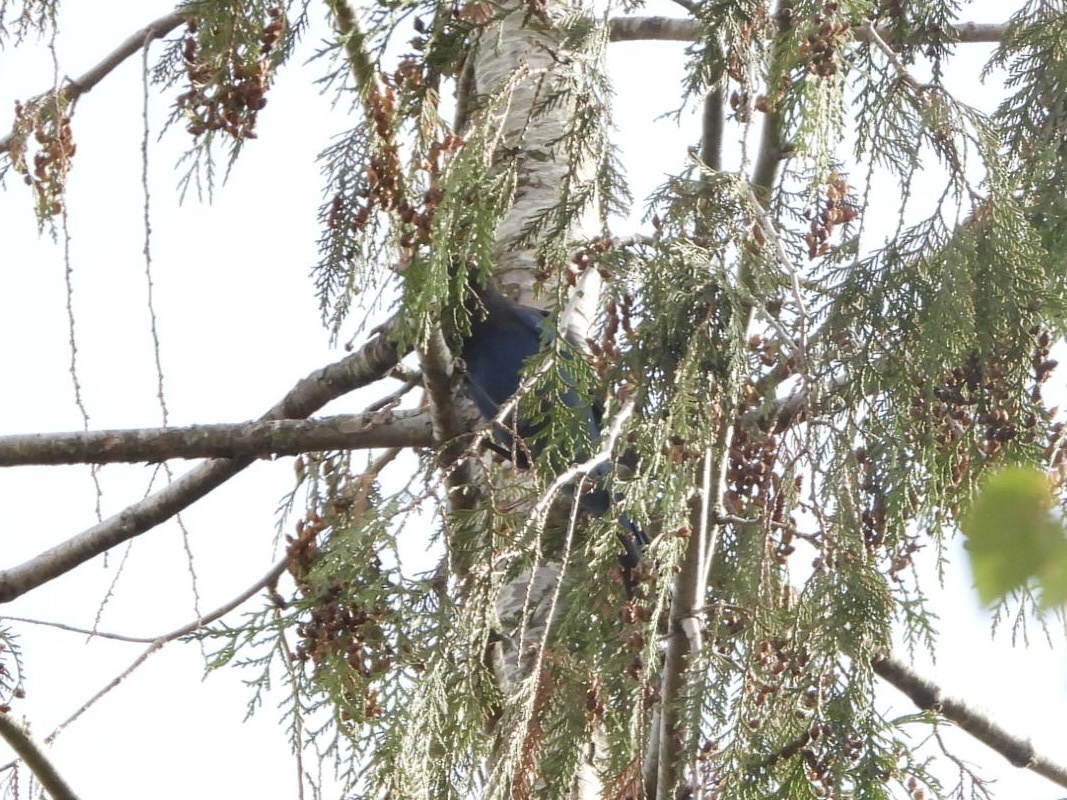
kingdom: Animalia
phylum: Chordata
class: Aves
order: Passeriformes
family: Corvidae
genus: Cyanocitta
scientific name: Cyanocitta stelleri
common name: Steller's jay
